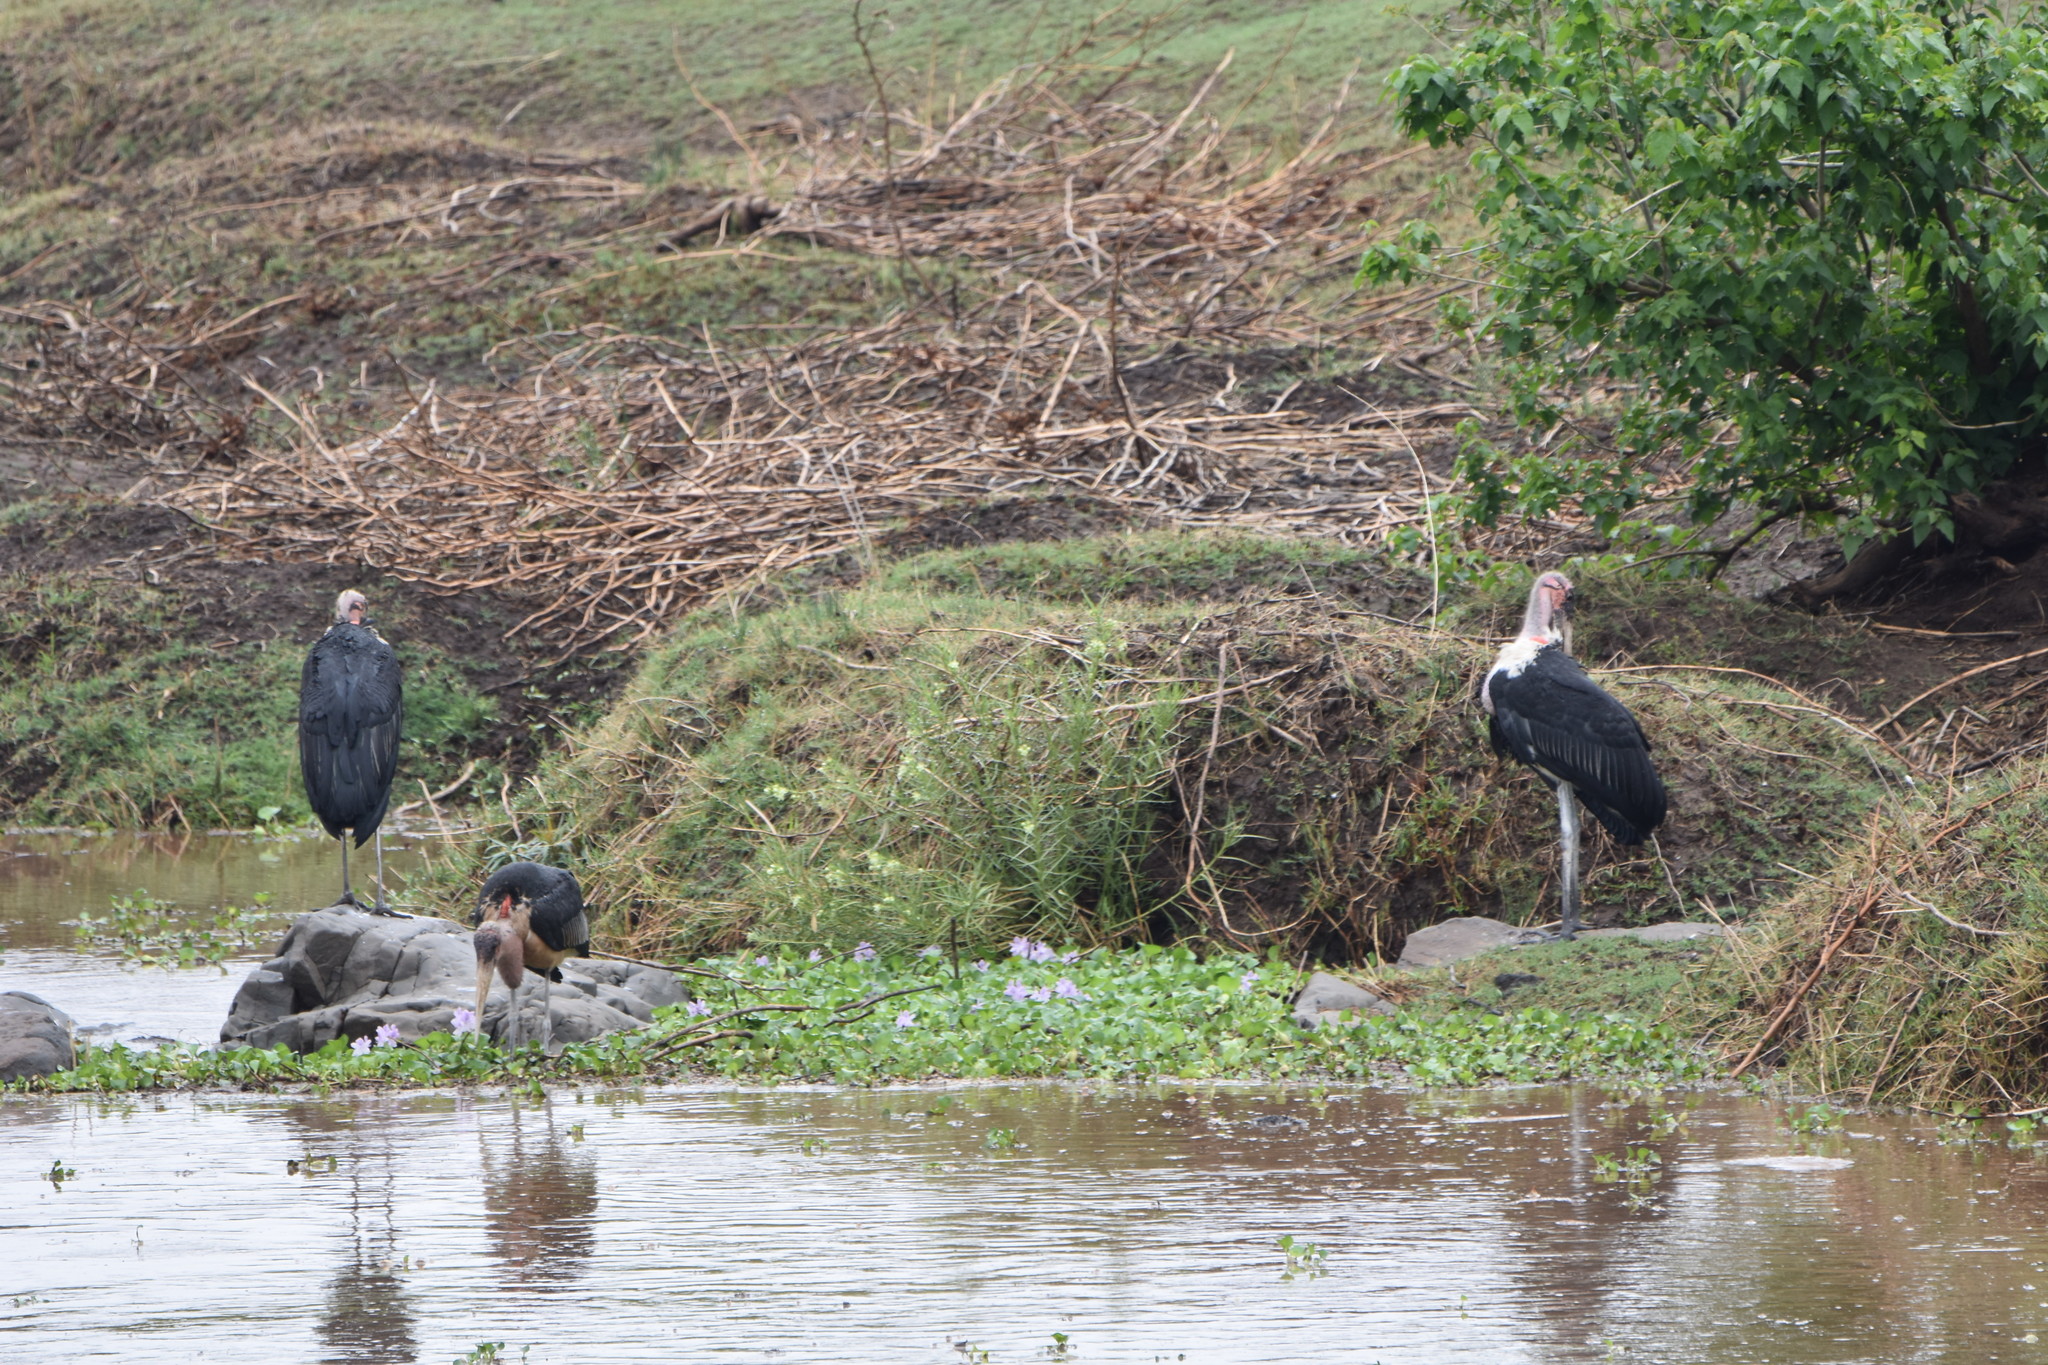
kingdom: Animalia
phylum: Chordata
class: Aves
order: Ciconiiformes
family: Ciconiidae
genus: Leptoptilos
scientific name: Leptoptilos crumenifer
